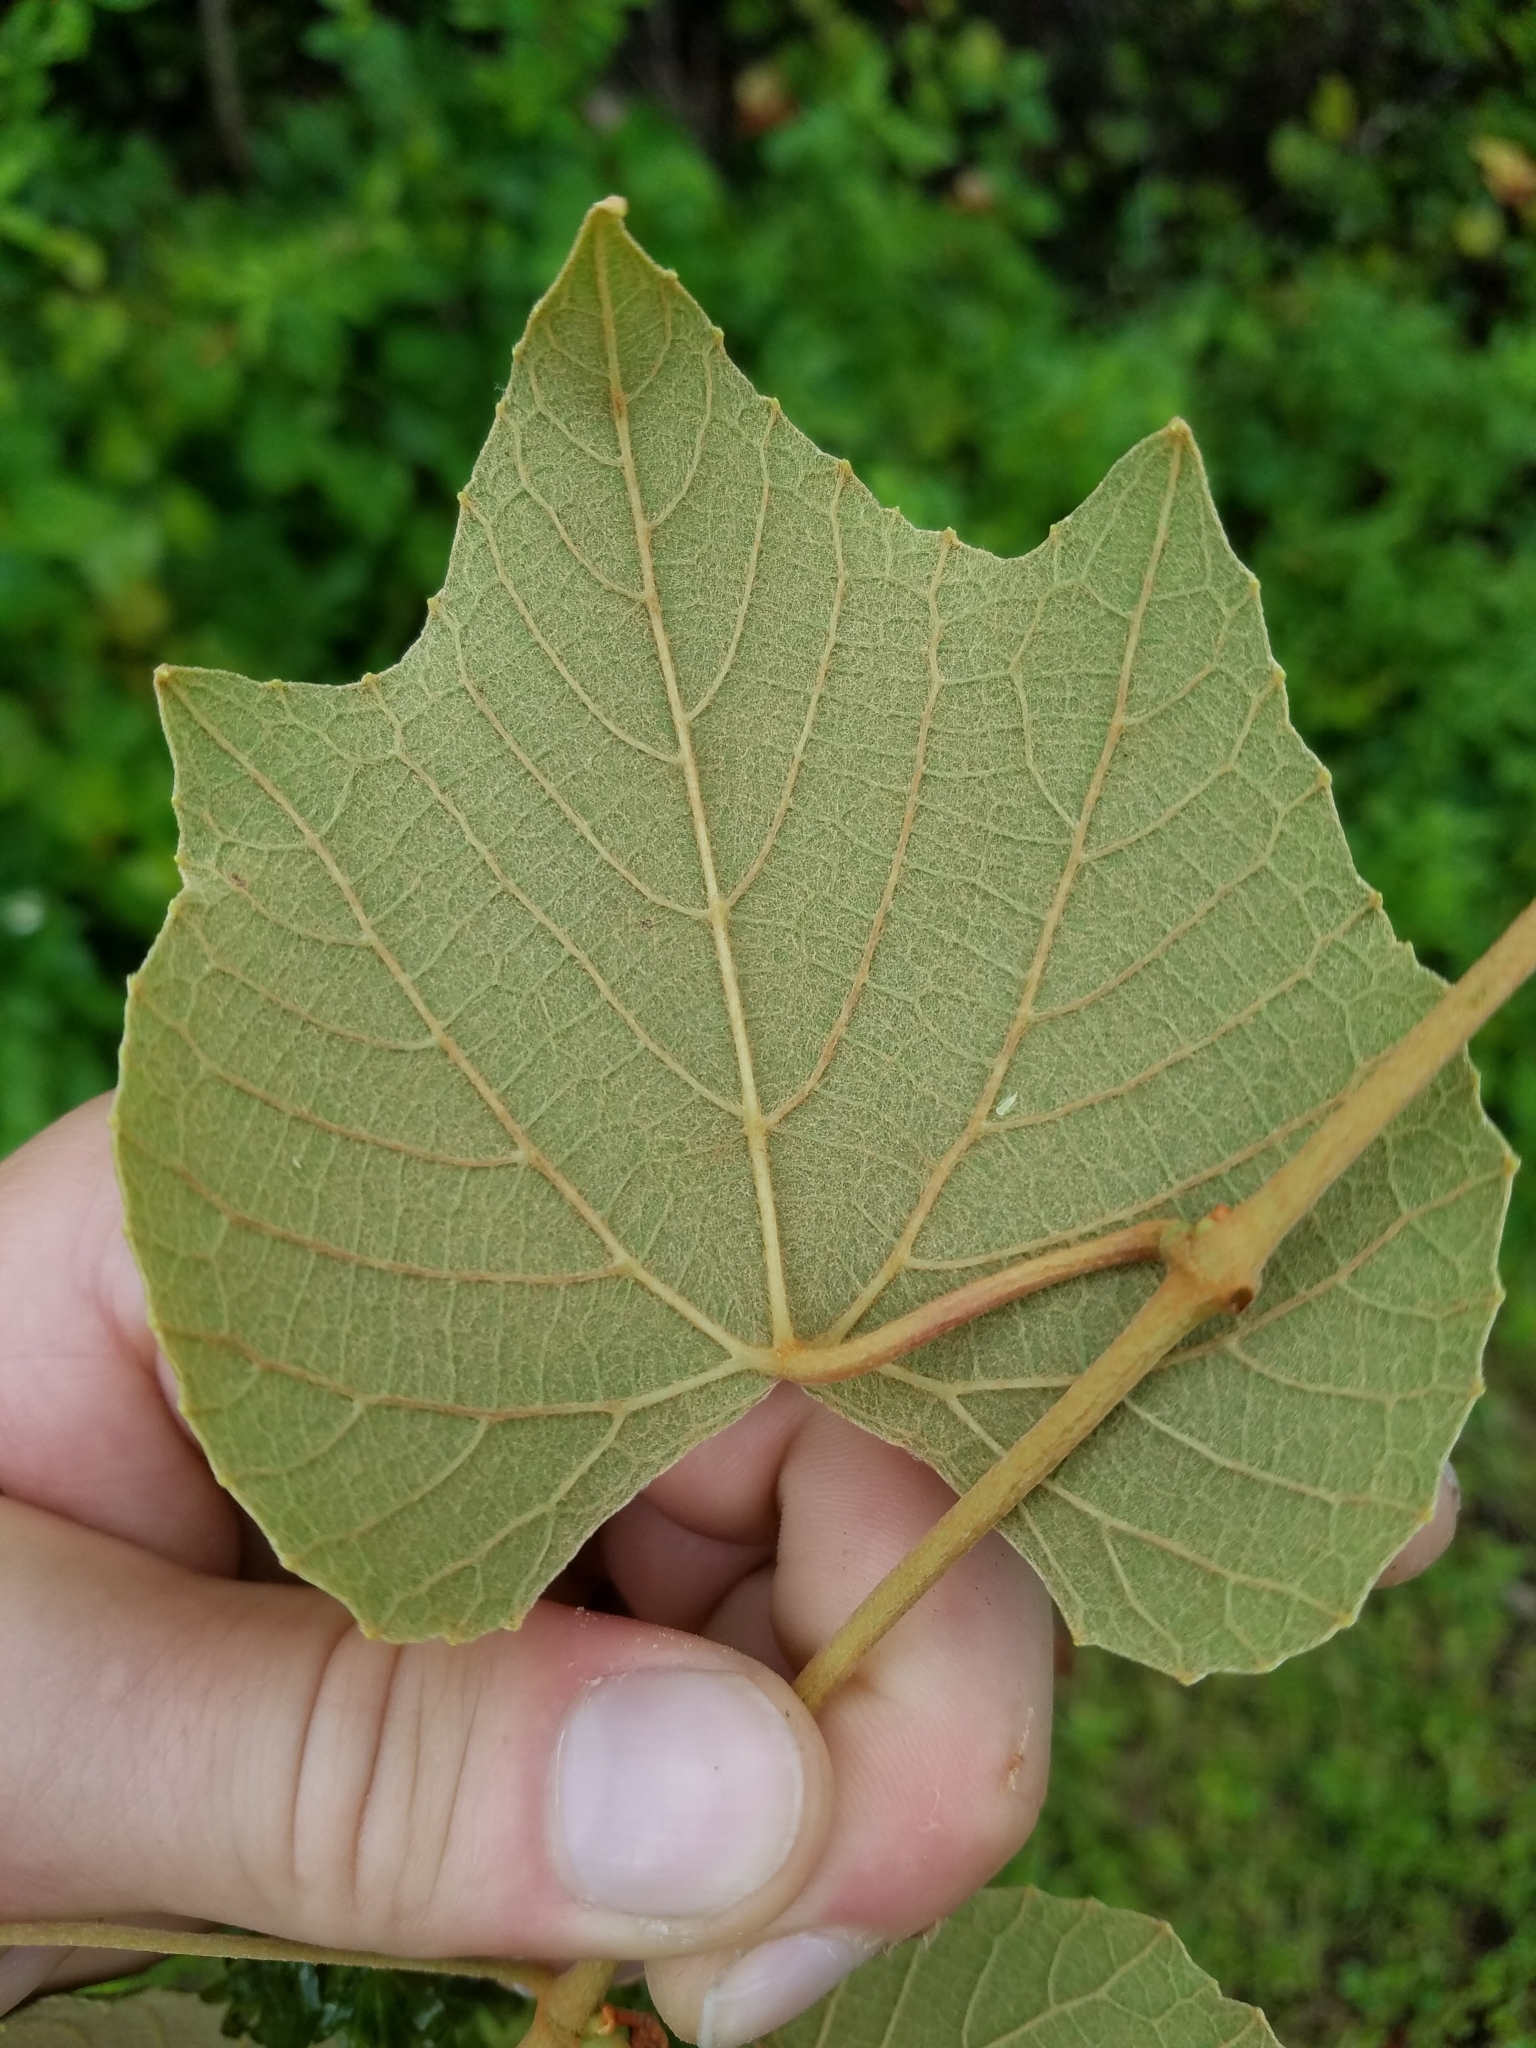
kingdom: Plantae
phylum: Tracheophyta
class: Magnoliopsida
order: Vitales
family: Vitaceae
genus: Vitis
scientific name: Vitis cinerea
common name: Ashy grape
